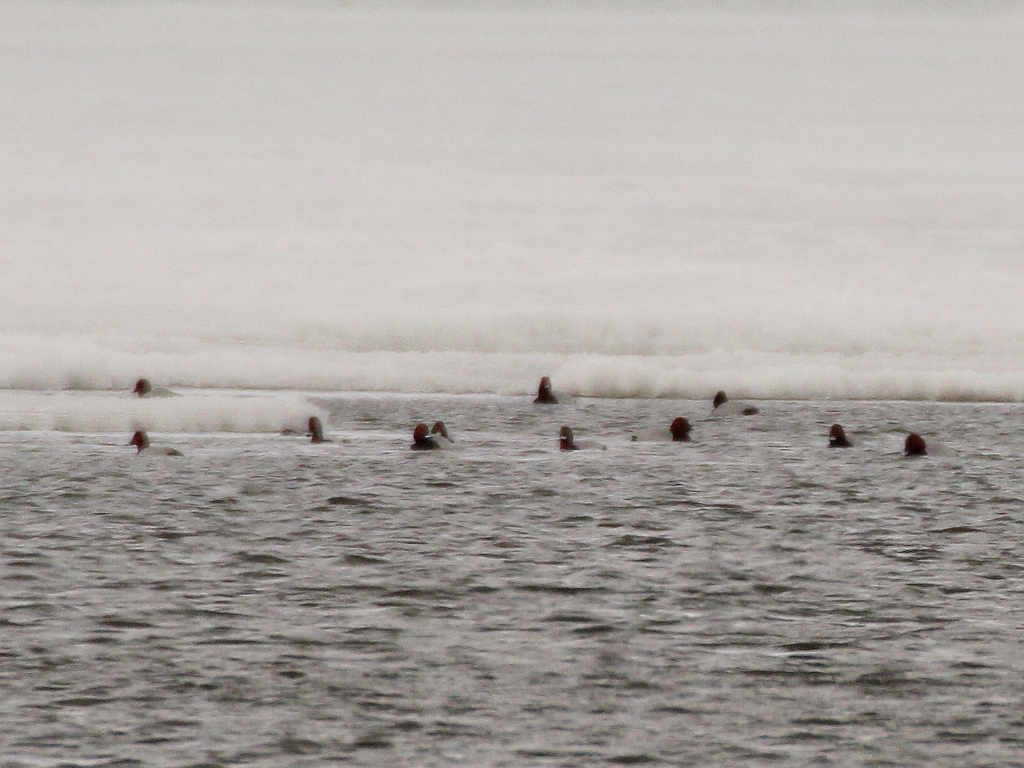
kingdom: Animalia
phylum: Chordata
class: Aves
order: Anseriformes
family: Anatidae
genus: Aythya
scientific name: Aythya ferina
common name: Common pochard
